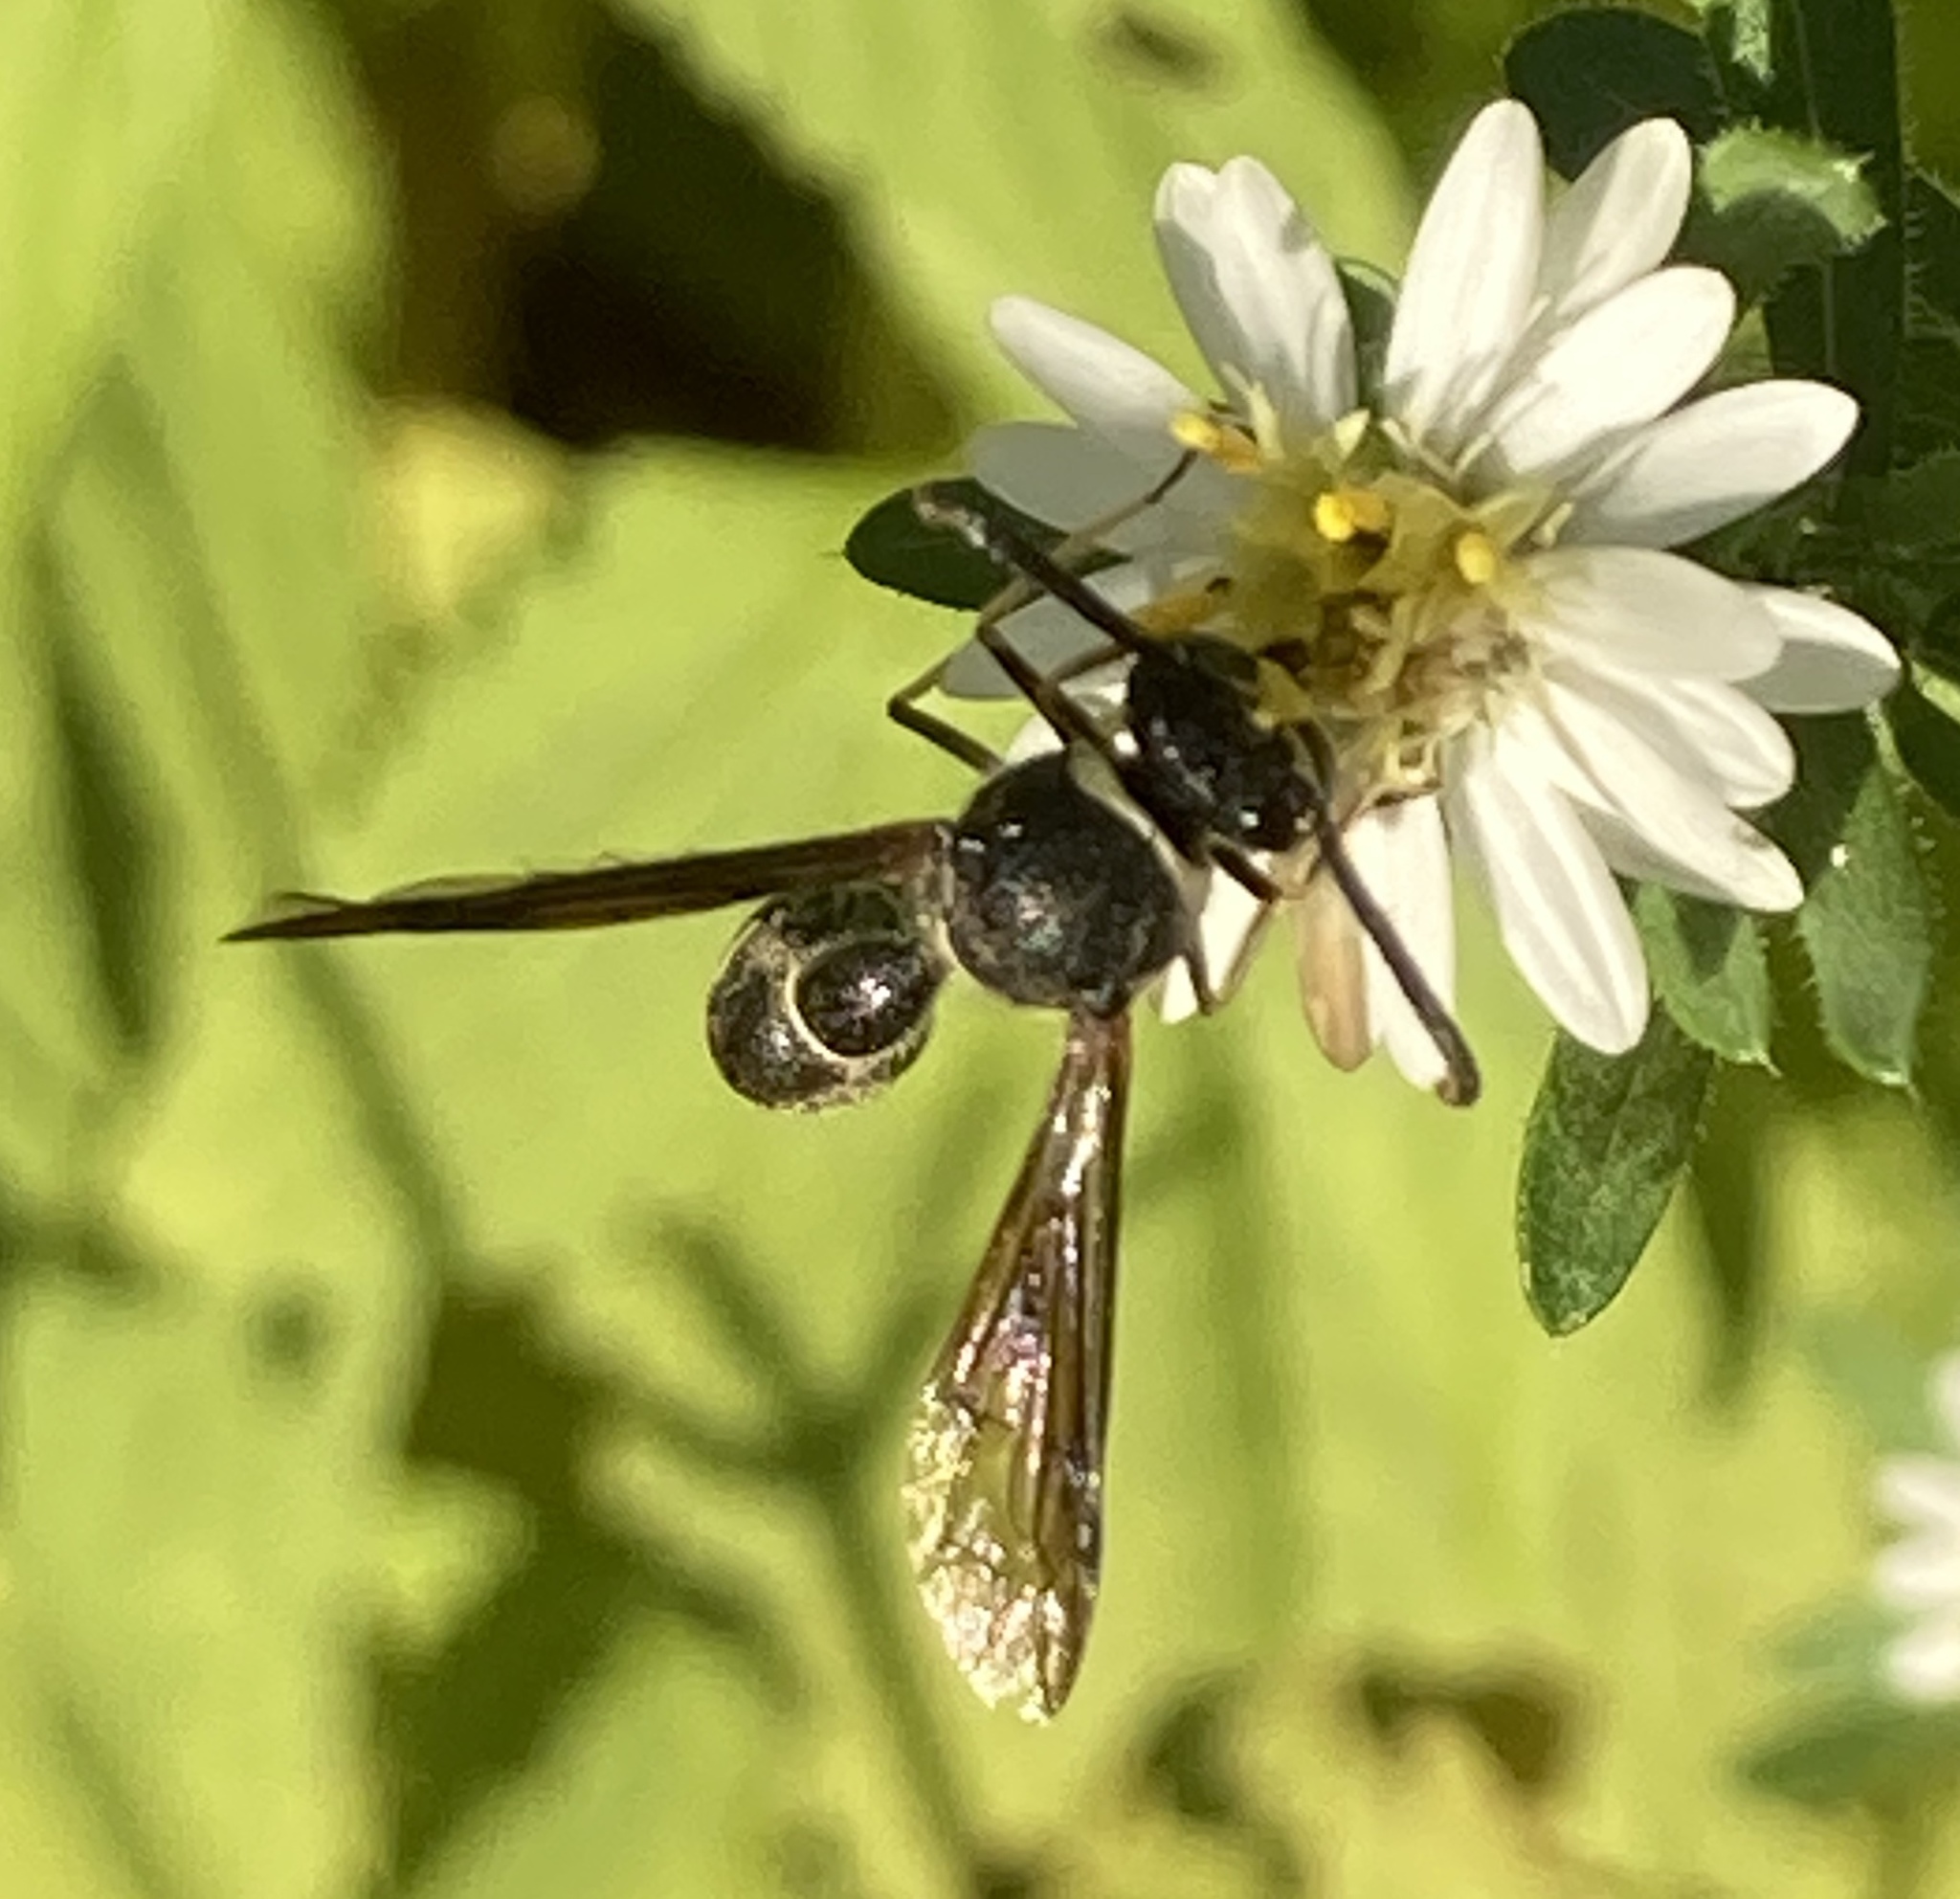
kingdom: Animalia
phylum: Arthropoda
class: Insecta
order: Hymenoptera
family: Vespidae
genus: Eumenes
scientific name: Eumenes fraternus
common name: Fraternal potter wasp
